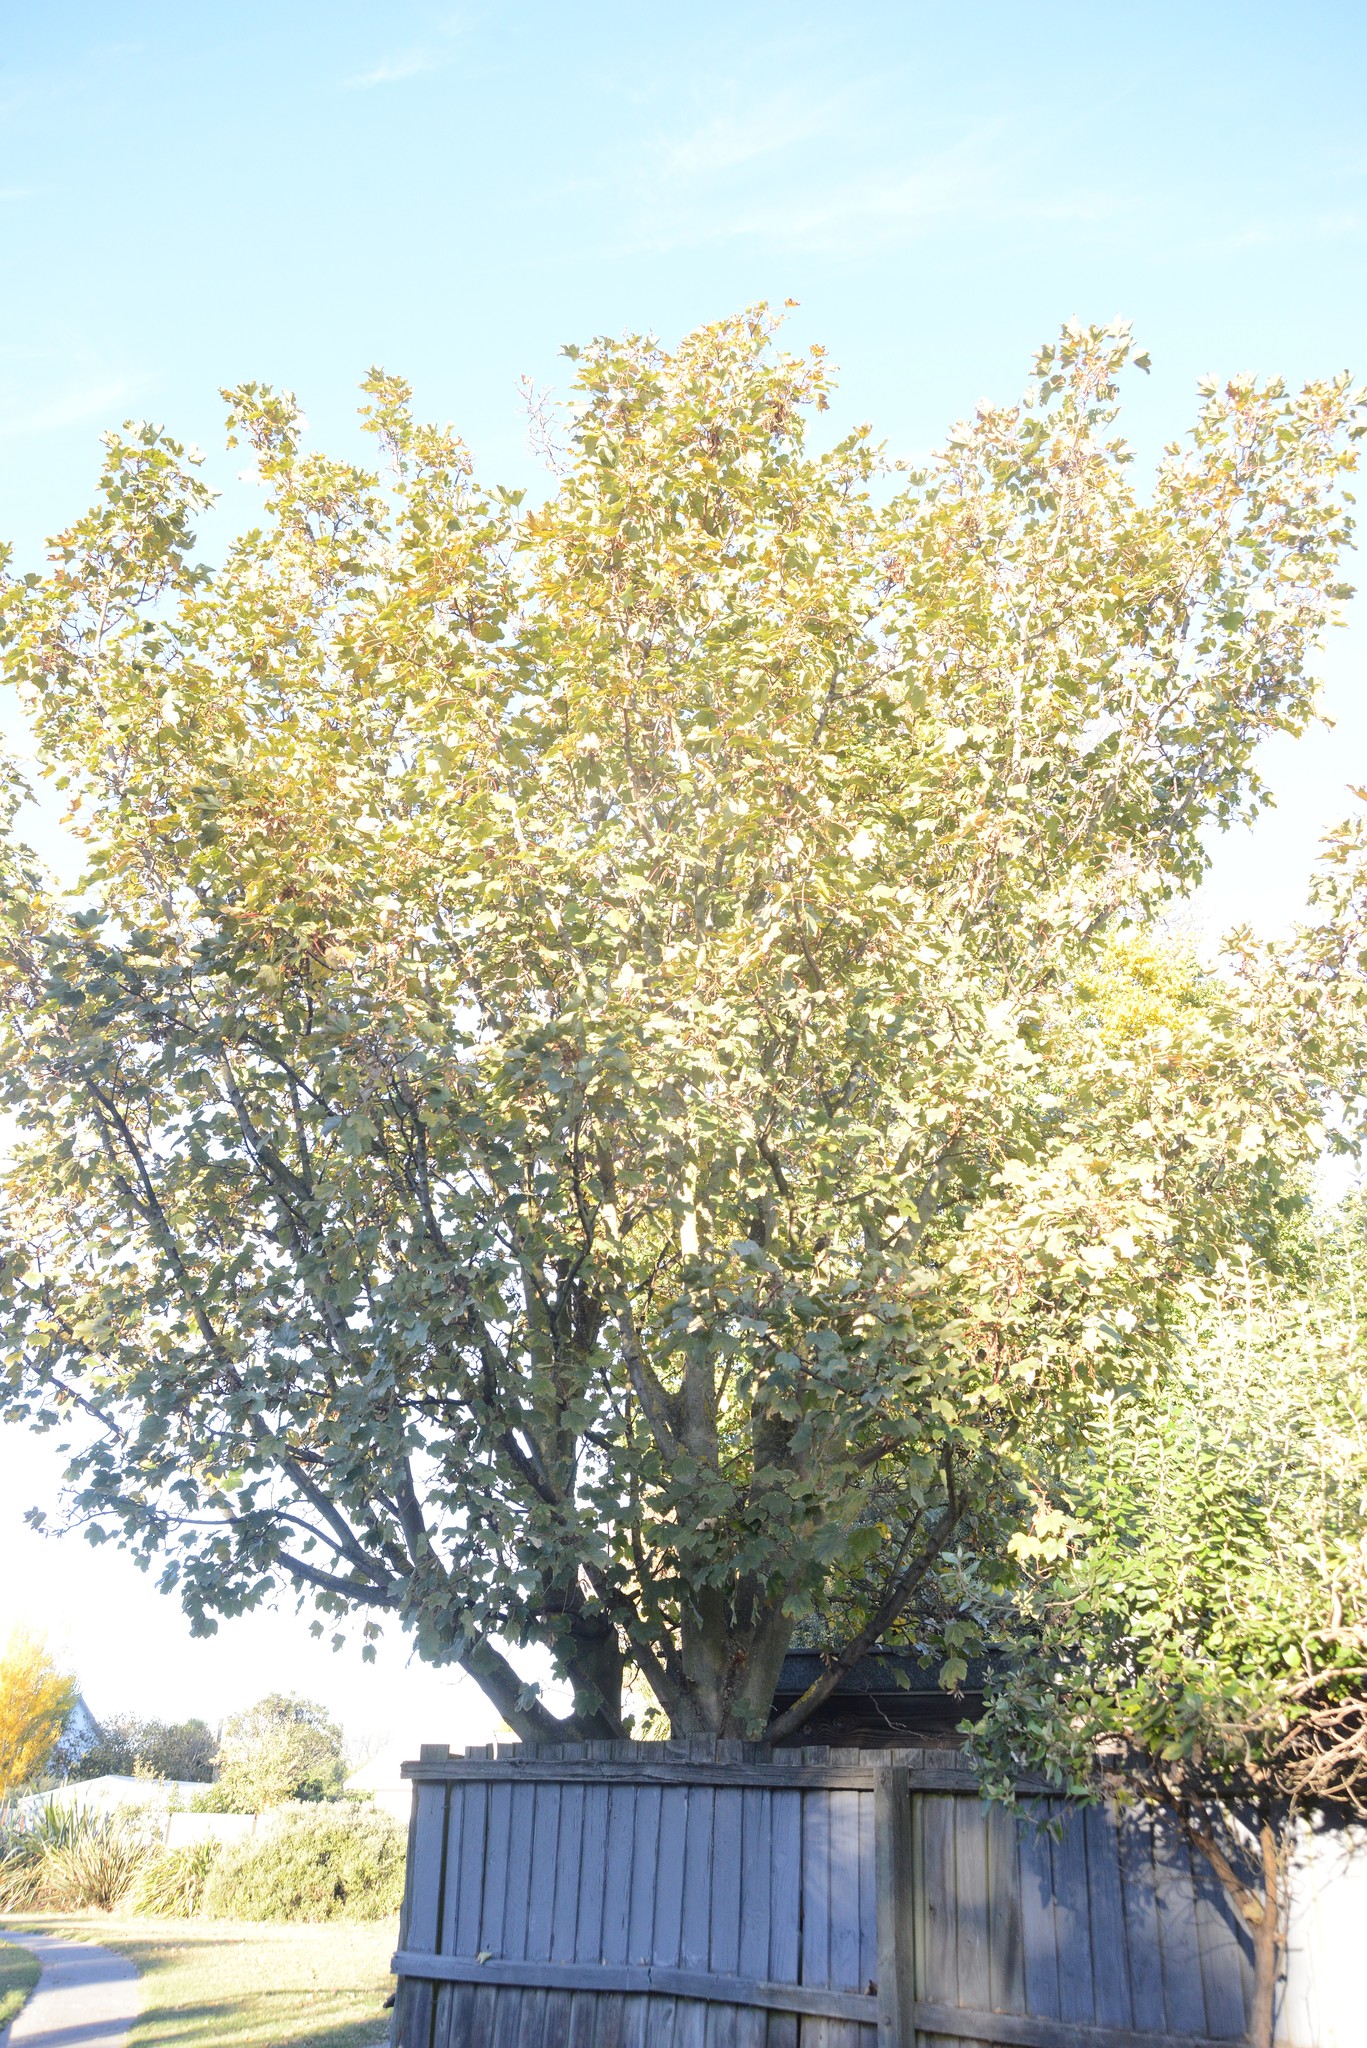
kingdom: Plantae
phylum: Tracheophyta
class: Magnoliopsida
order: Sapindales
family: Sapindaceae
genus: Acer
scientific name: Acer pseudoplatanus
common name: Sycamore
